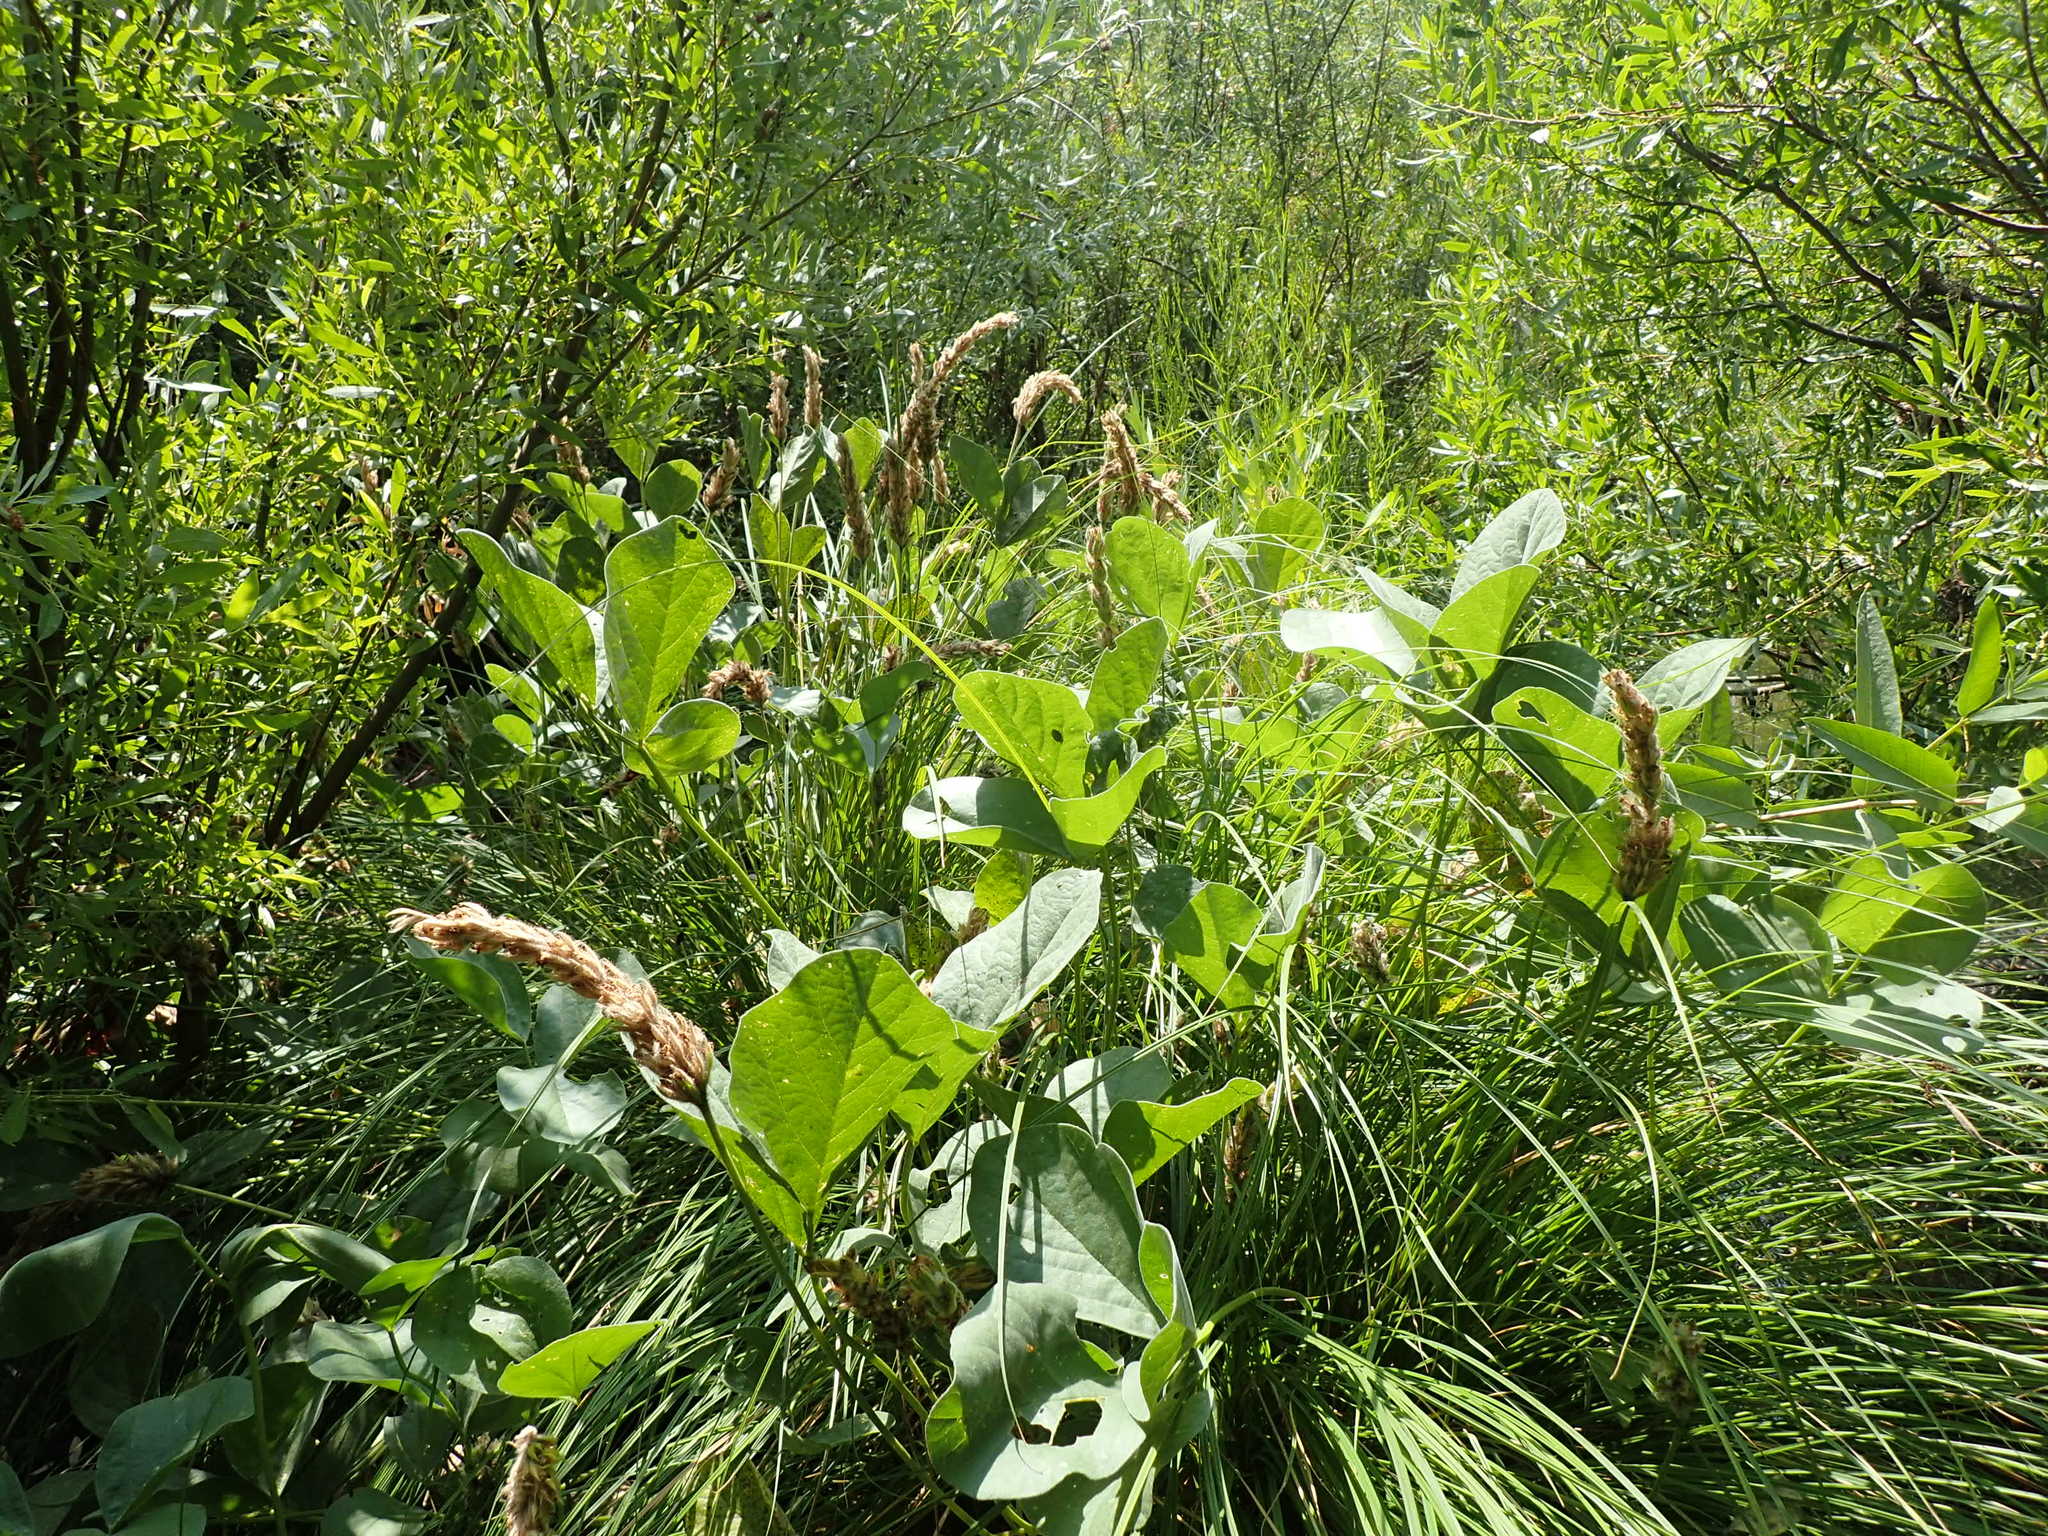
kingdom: Plantae
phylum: Tracheophyta
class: Magnoliopsida
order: Fabales
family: Fabaceae
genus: Hoita
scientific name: Hoita orbicularis
